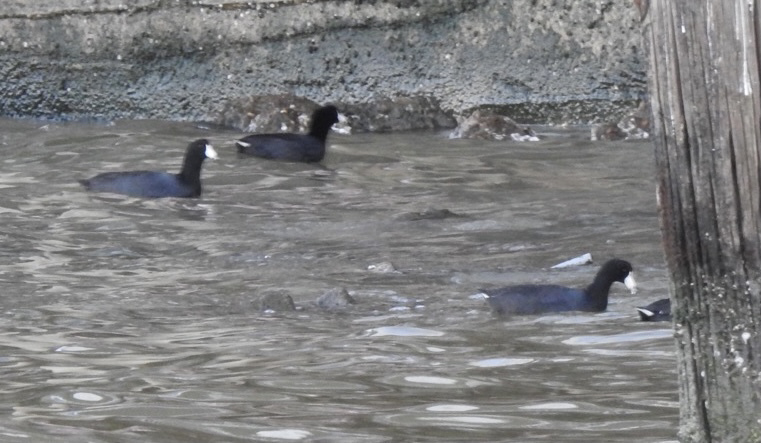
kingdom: Animalia
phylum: Chordata
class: Aves
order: Gruiformes
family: Rallidae
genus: Fulica
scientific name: Fulica americana
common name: American coot
